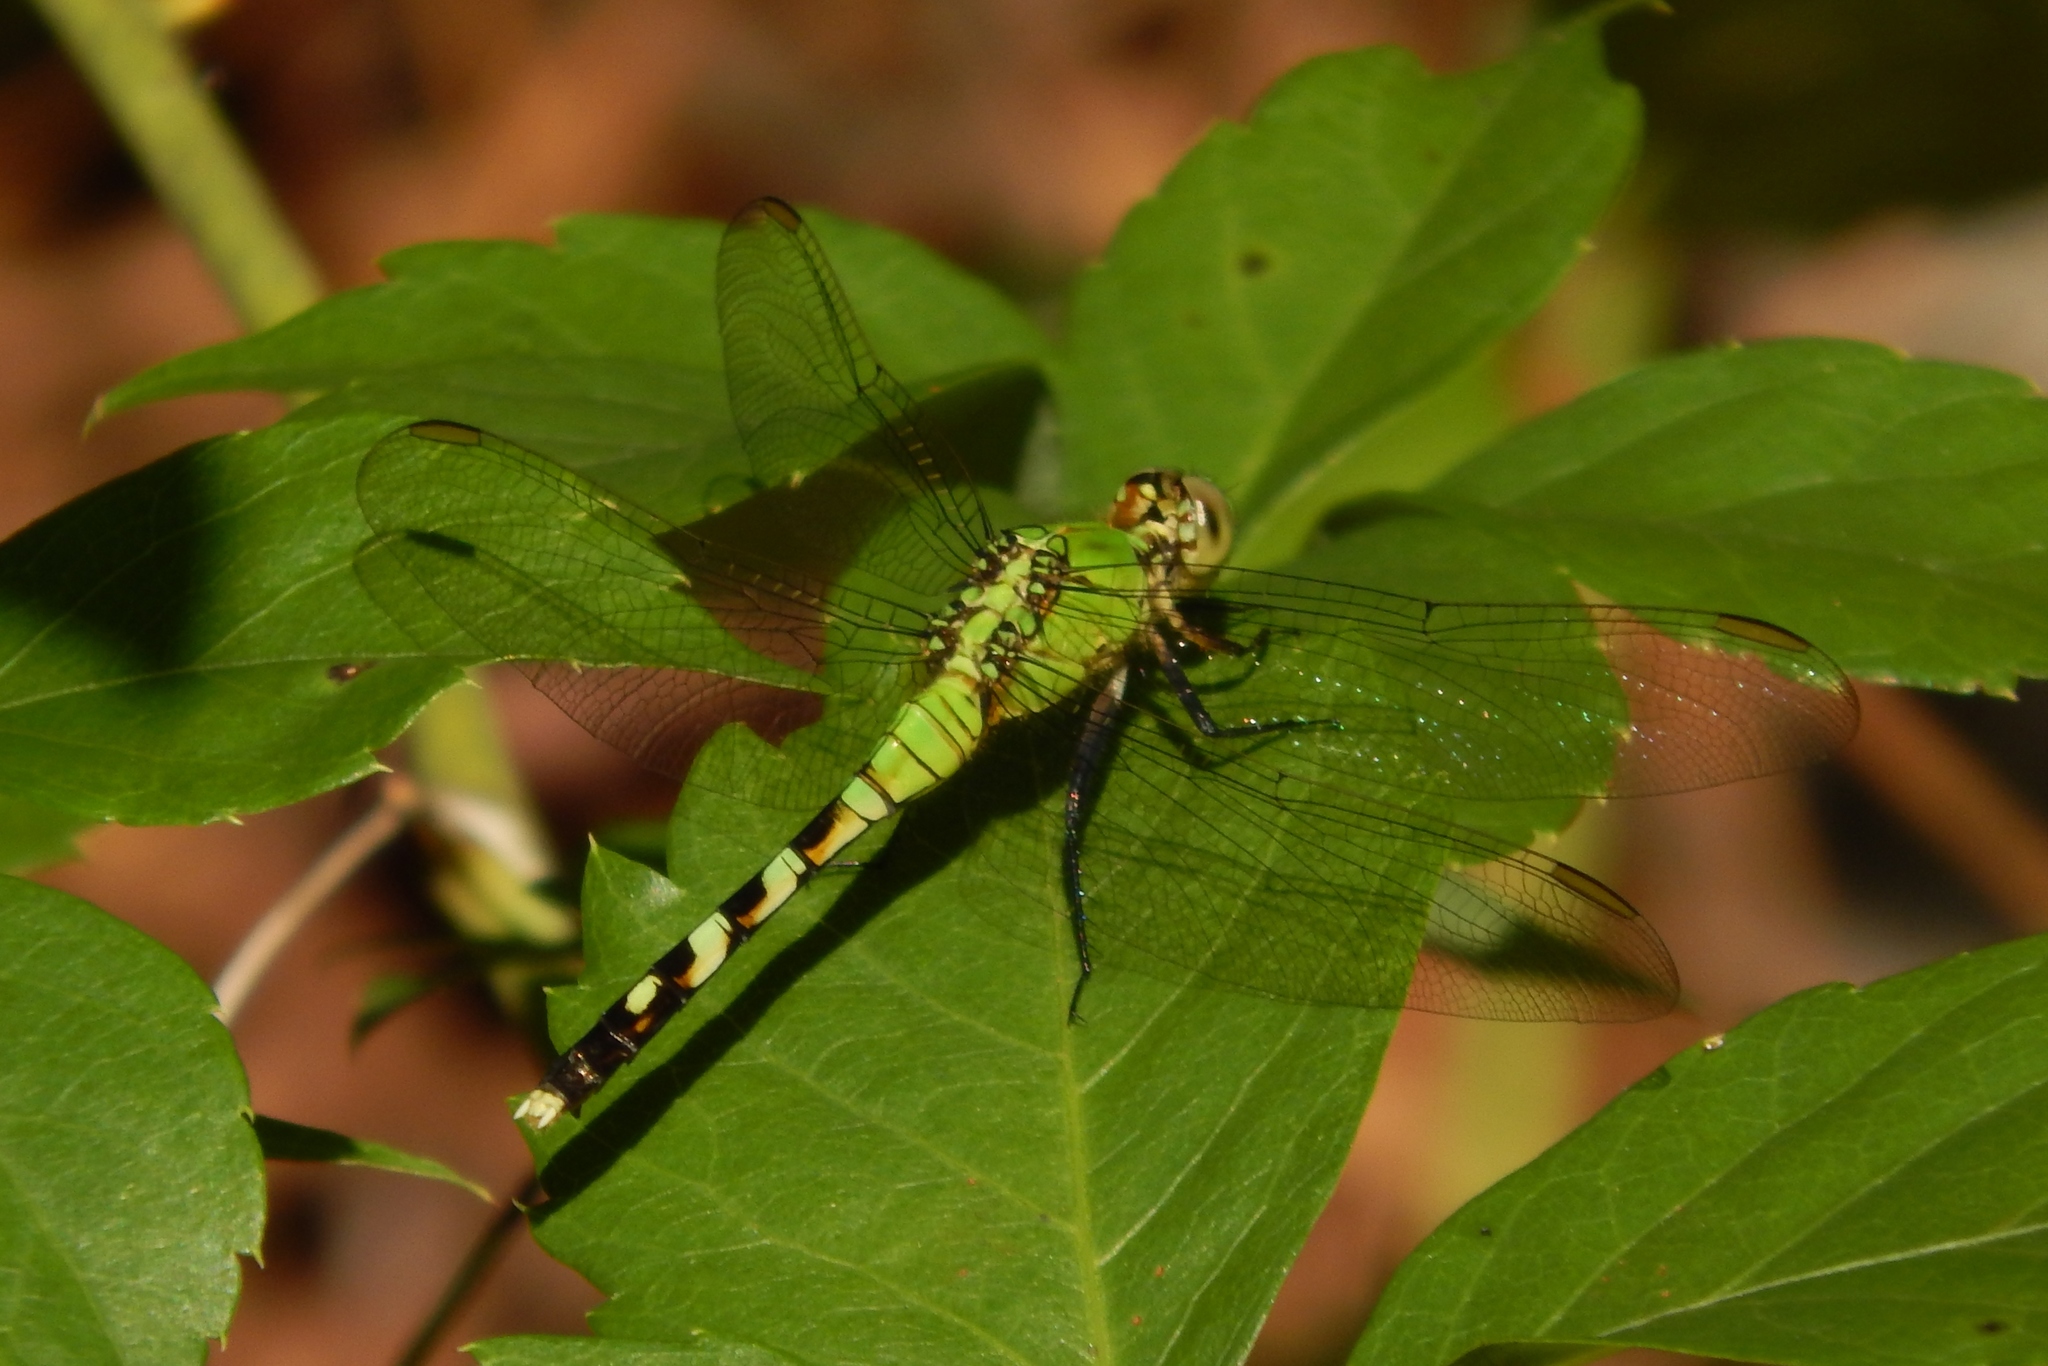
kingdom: Animalia
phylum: Arthropoda
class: Insecta
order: Odonata
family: Libellulidae
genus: Erythemis
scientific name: Erythemis simplicicollis
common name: Eastern pondhawk
